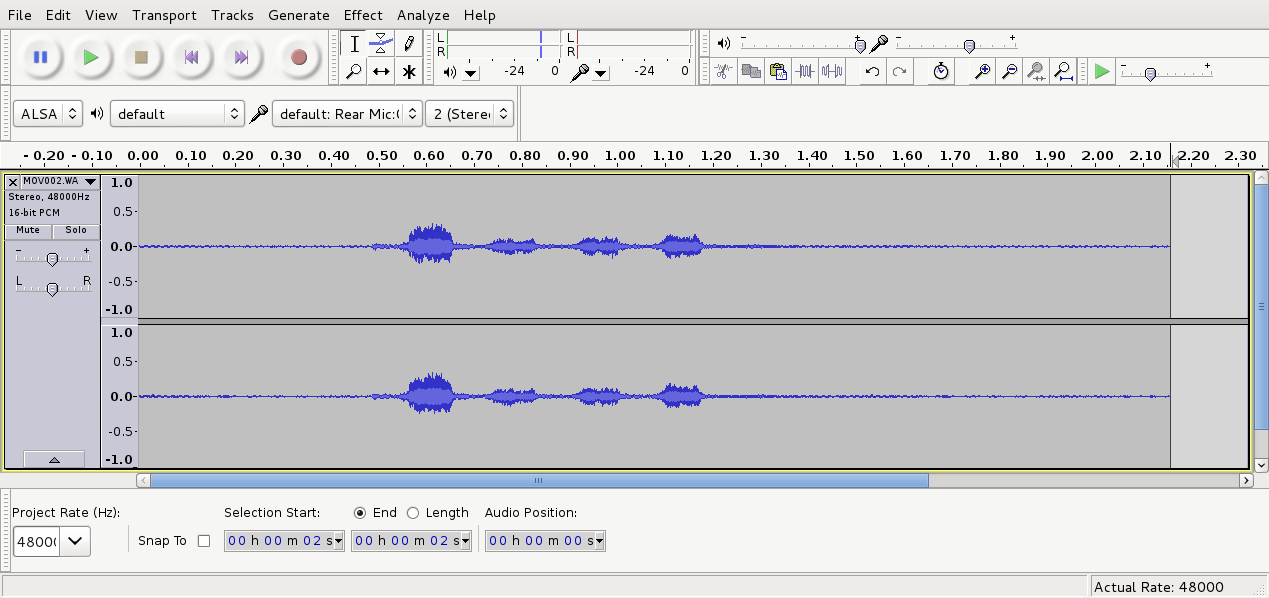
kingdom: Animalia
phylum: Chordata
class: Aves
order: Falconiformes
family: Falconidae
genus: Falco
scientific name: Falco novaeseelandiae
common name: New zealand falcon
